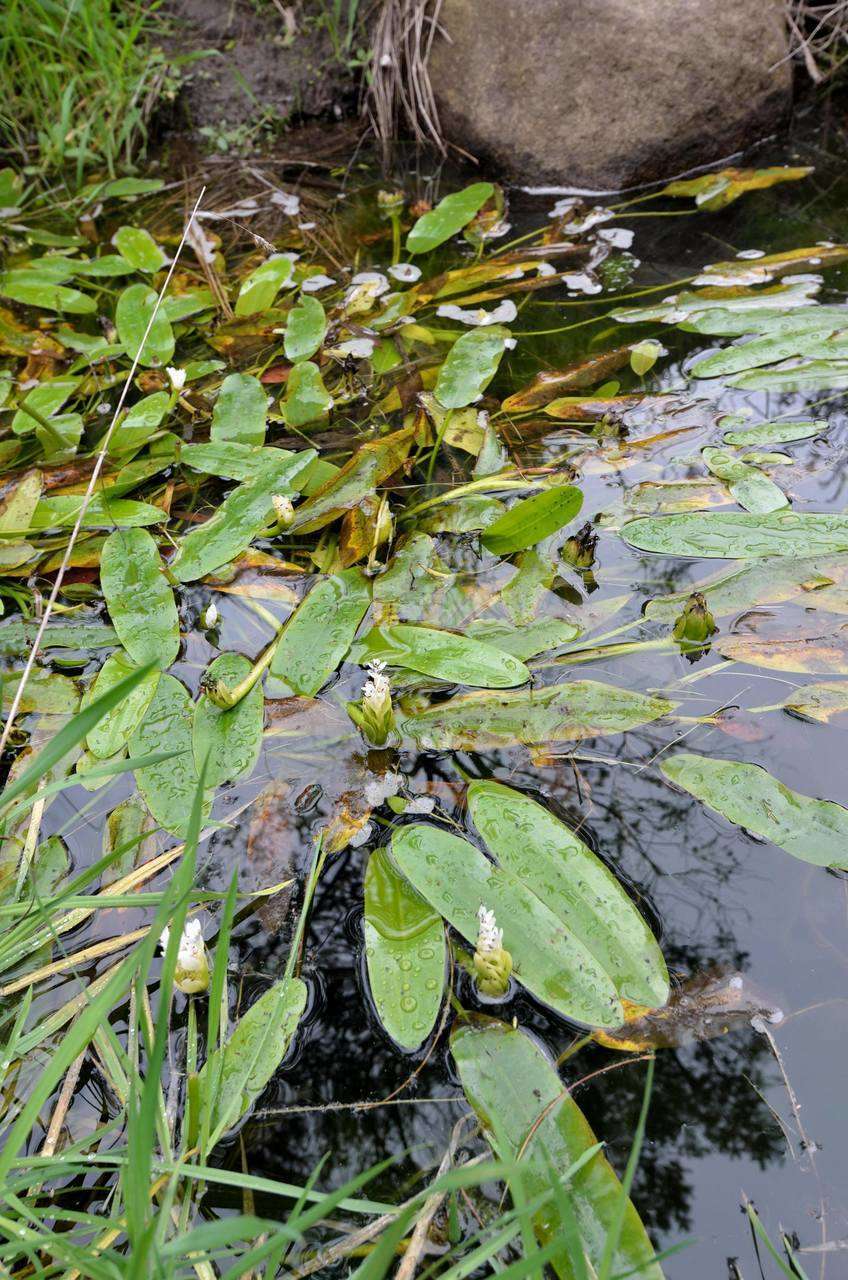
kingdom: Plantae
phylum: Tracheophyta
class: Liliopsida
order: Alismatales
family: Aponogetonaceae
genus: Aponogeton
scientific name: Aponogeton distachyos
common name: Cape-pondweed
